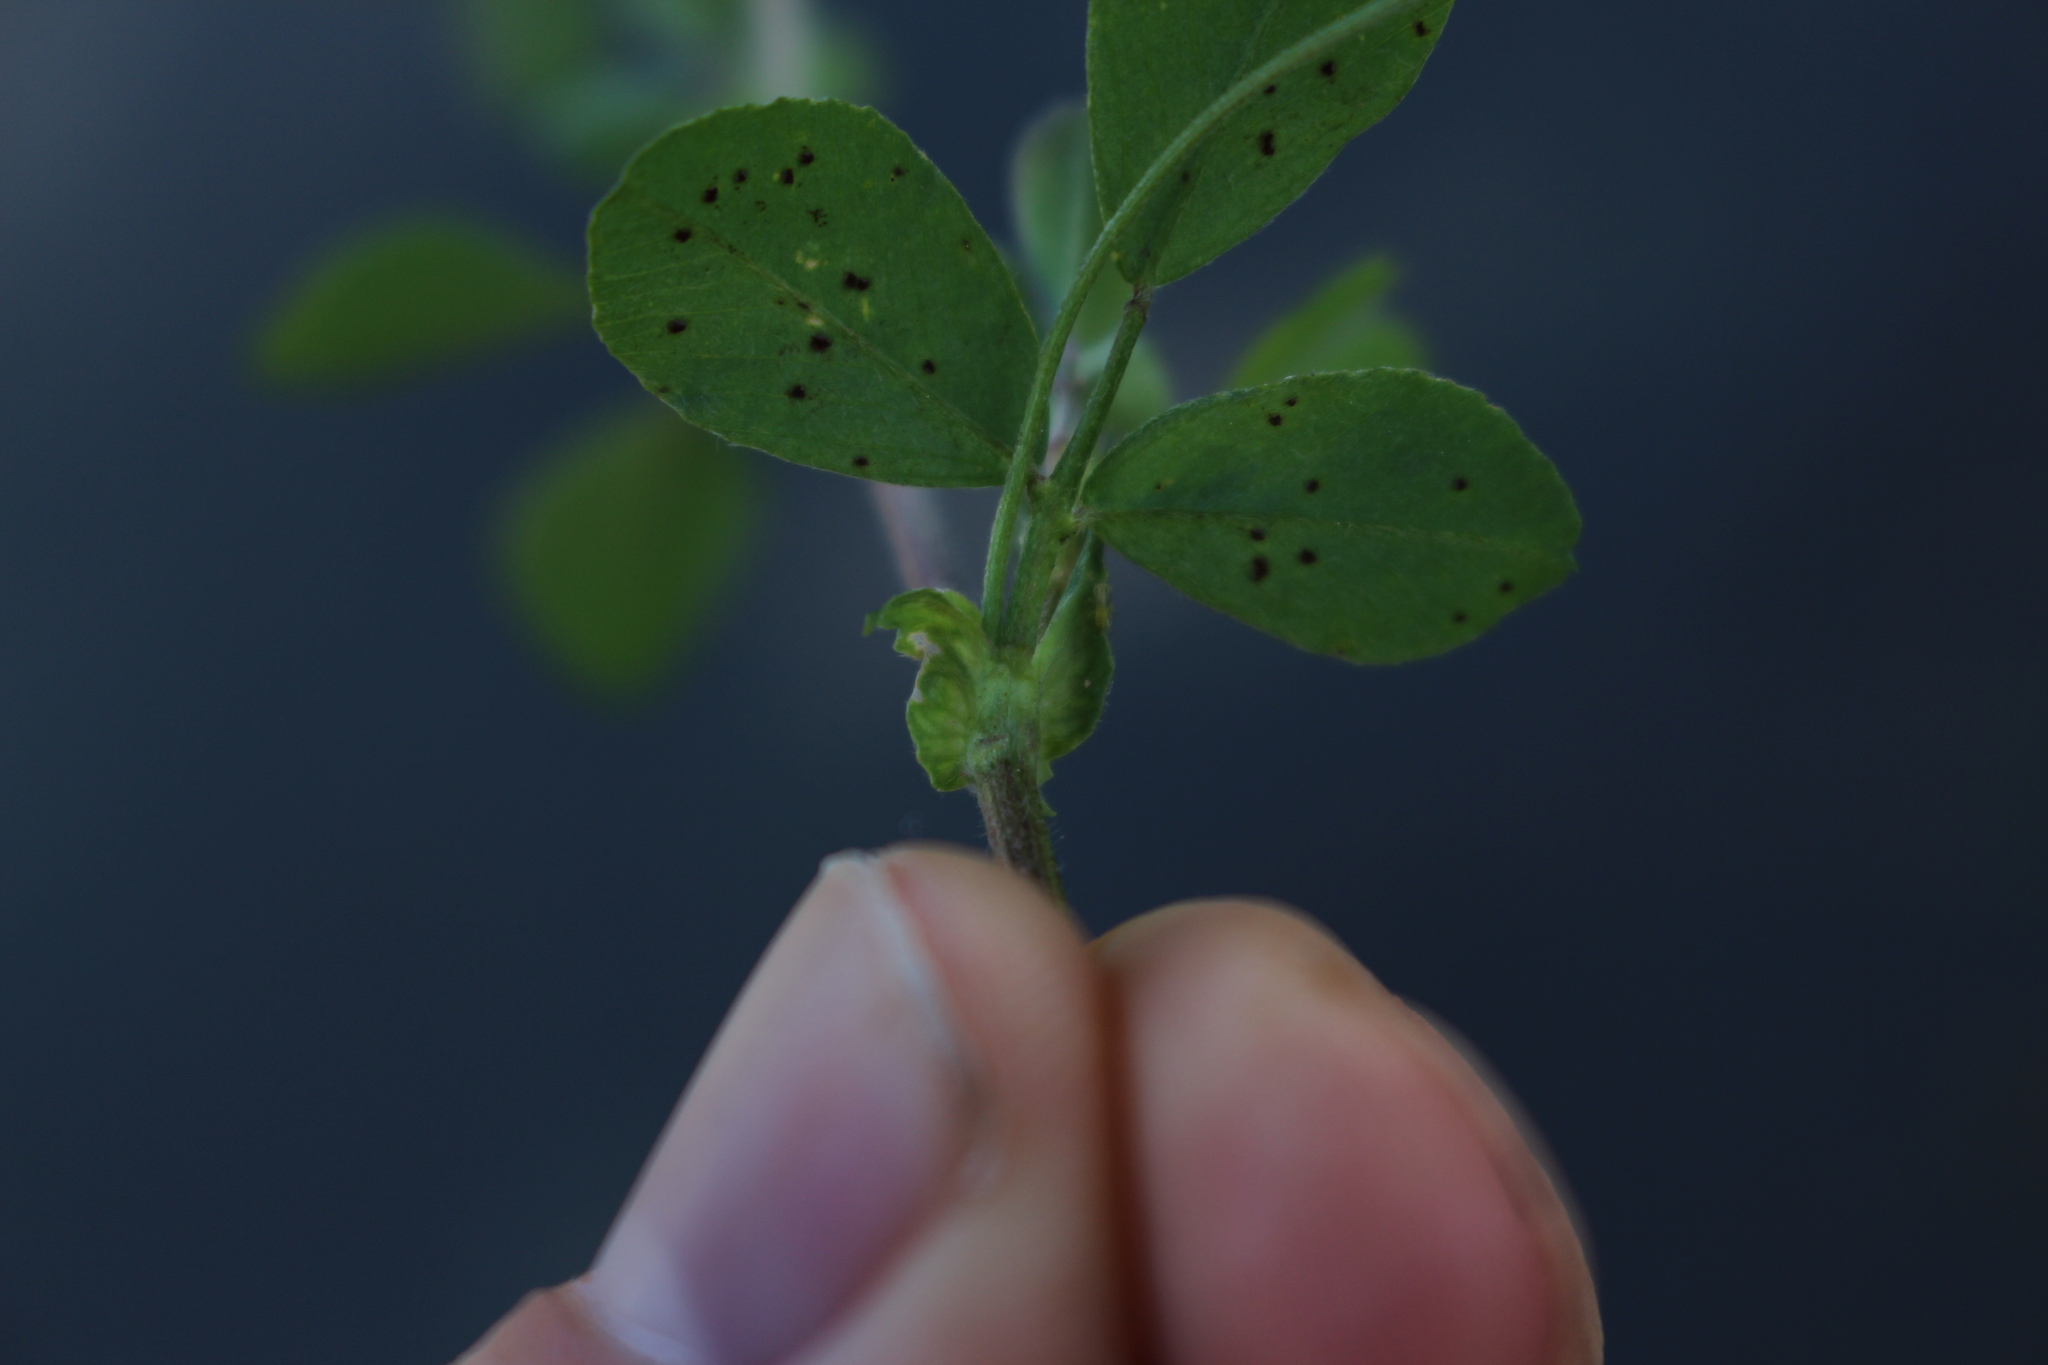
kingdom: Plantae
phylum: Tracheophyta
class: Magnoliopsida
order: Fabales
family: Fabaceae
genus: Medicago
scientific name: Medicago lupulina
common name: Black medick
